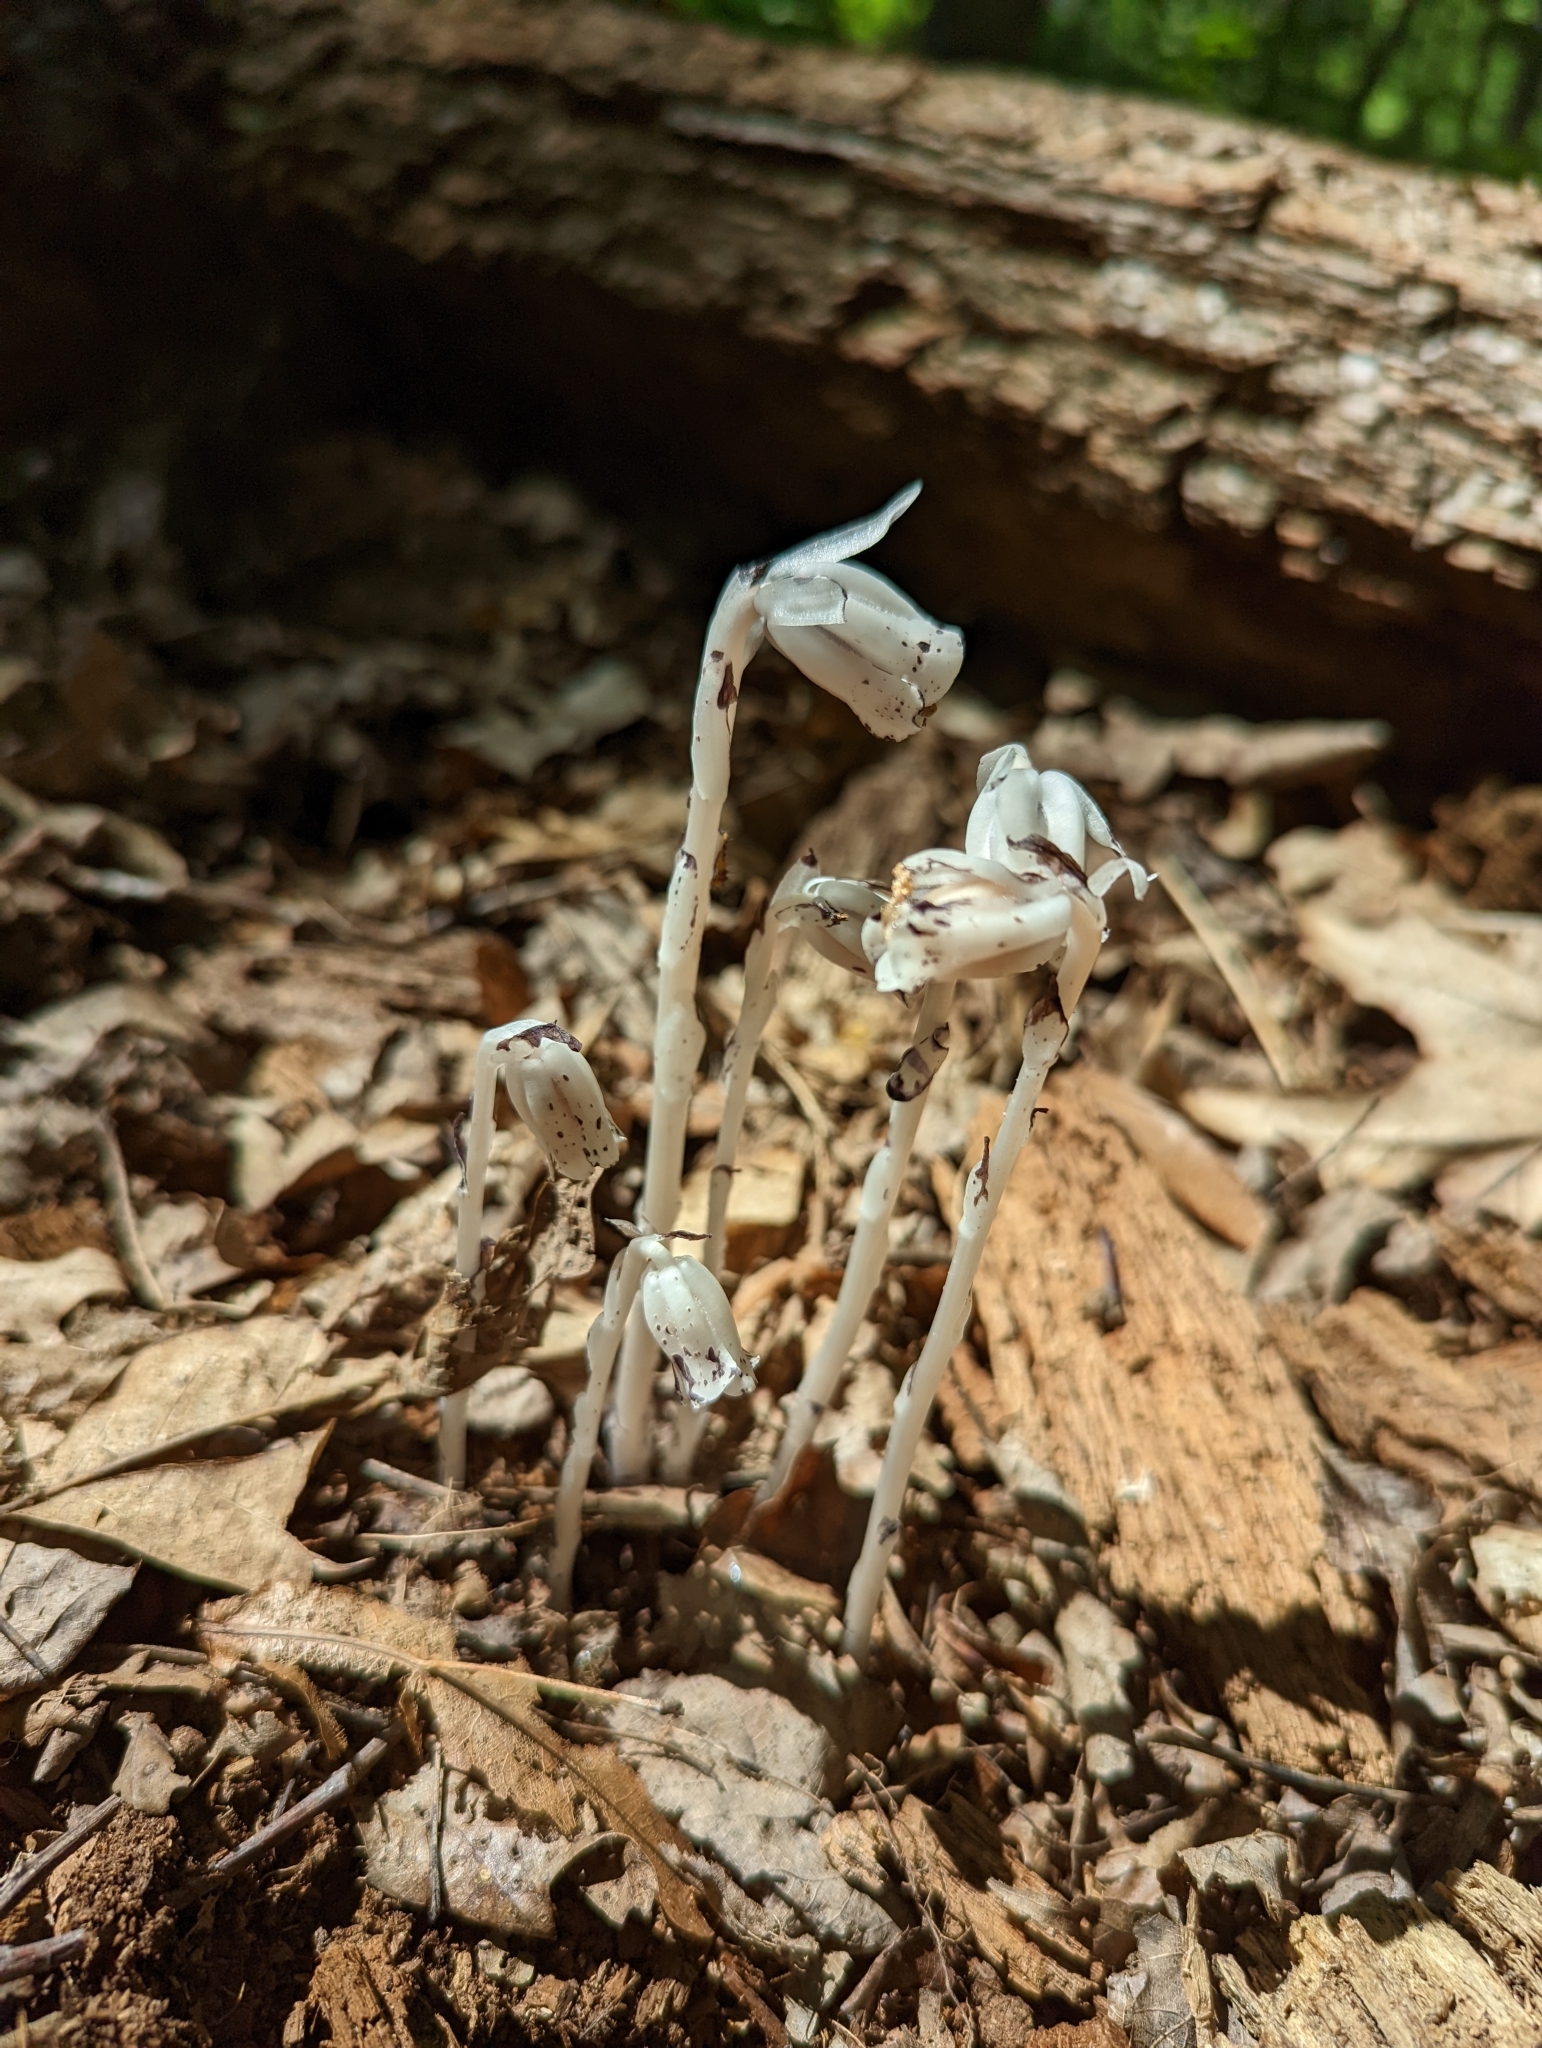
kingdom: Plantae
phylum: Tracheophyta
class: Magnoliopsida
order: Ericales
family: Ericaceae
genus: Monotropa
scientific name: Monotropa uniflora
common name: Convulsion root
